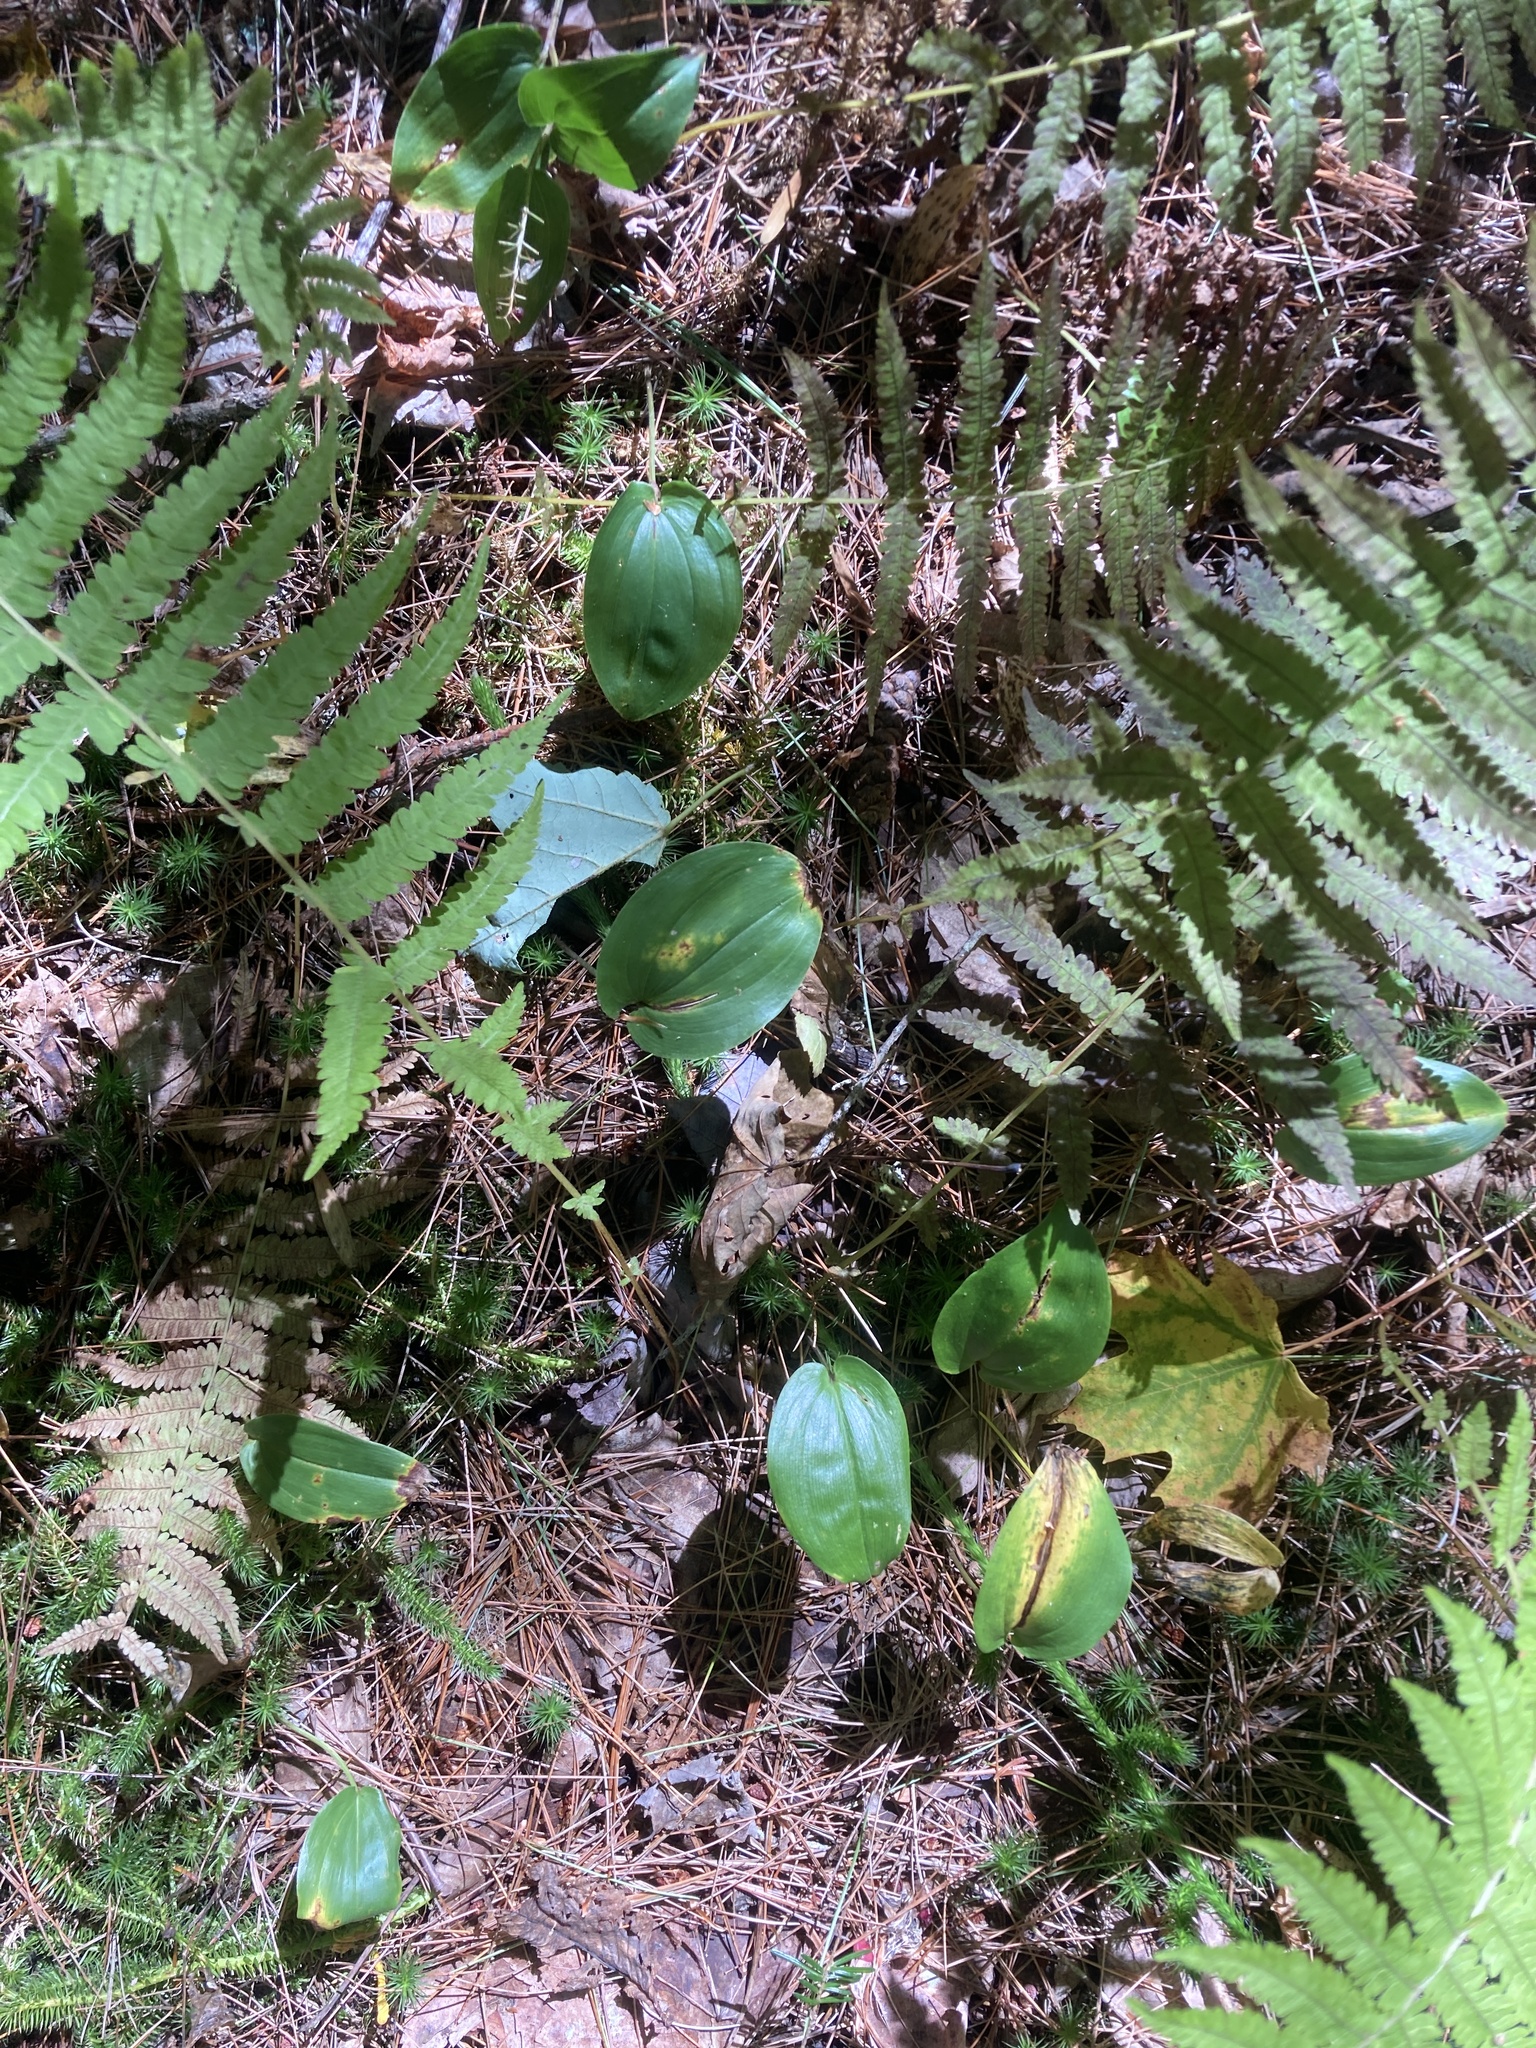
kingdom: Plantae
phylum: Tracheophyta
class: Liliopsida
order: Asparagales
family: Asparagaceae
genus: Maianthemum
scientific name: Maianthemum canadense
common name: False lily-of-the-valley
